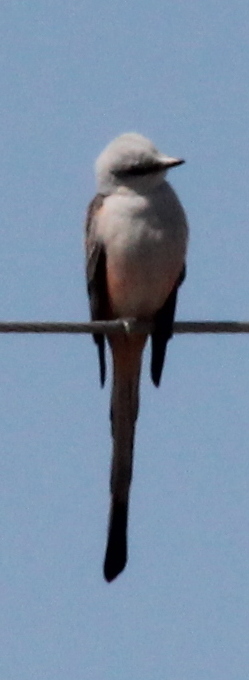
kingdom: Animalia
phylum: Chordata
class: Aves
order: Passeriformes
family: Tyrannidae
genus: Tyrannus
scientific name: Tyrannus forficatus
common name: Scissor-tailed flycatcher
